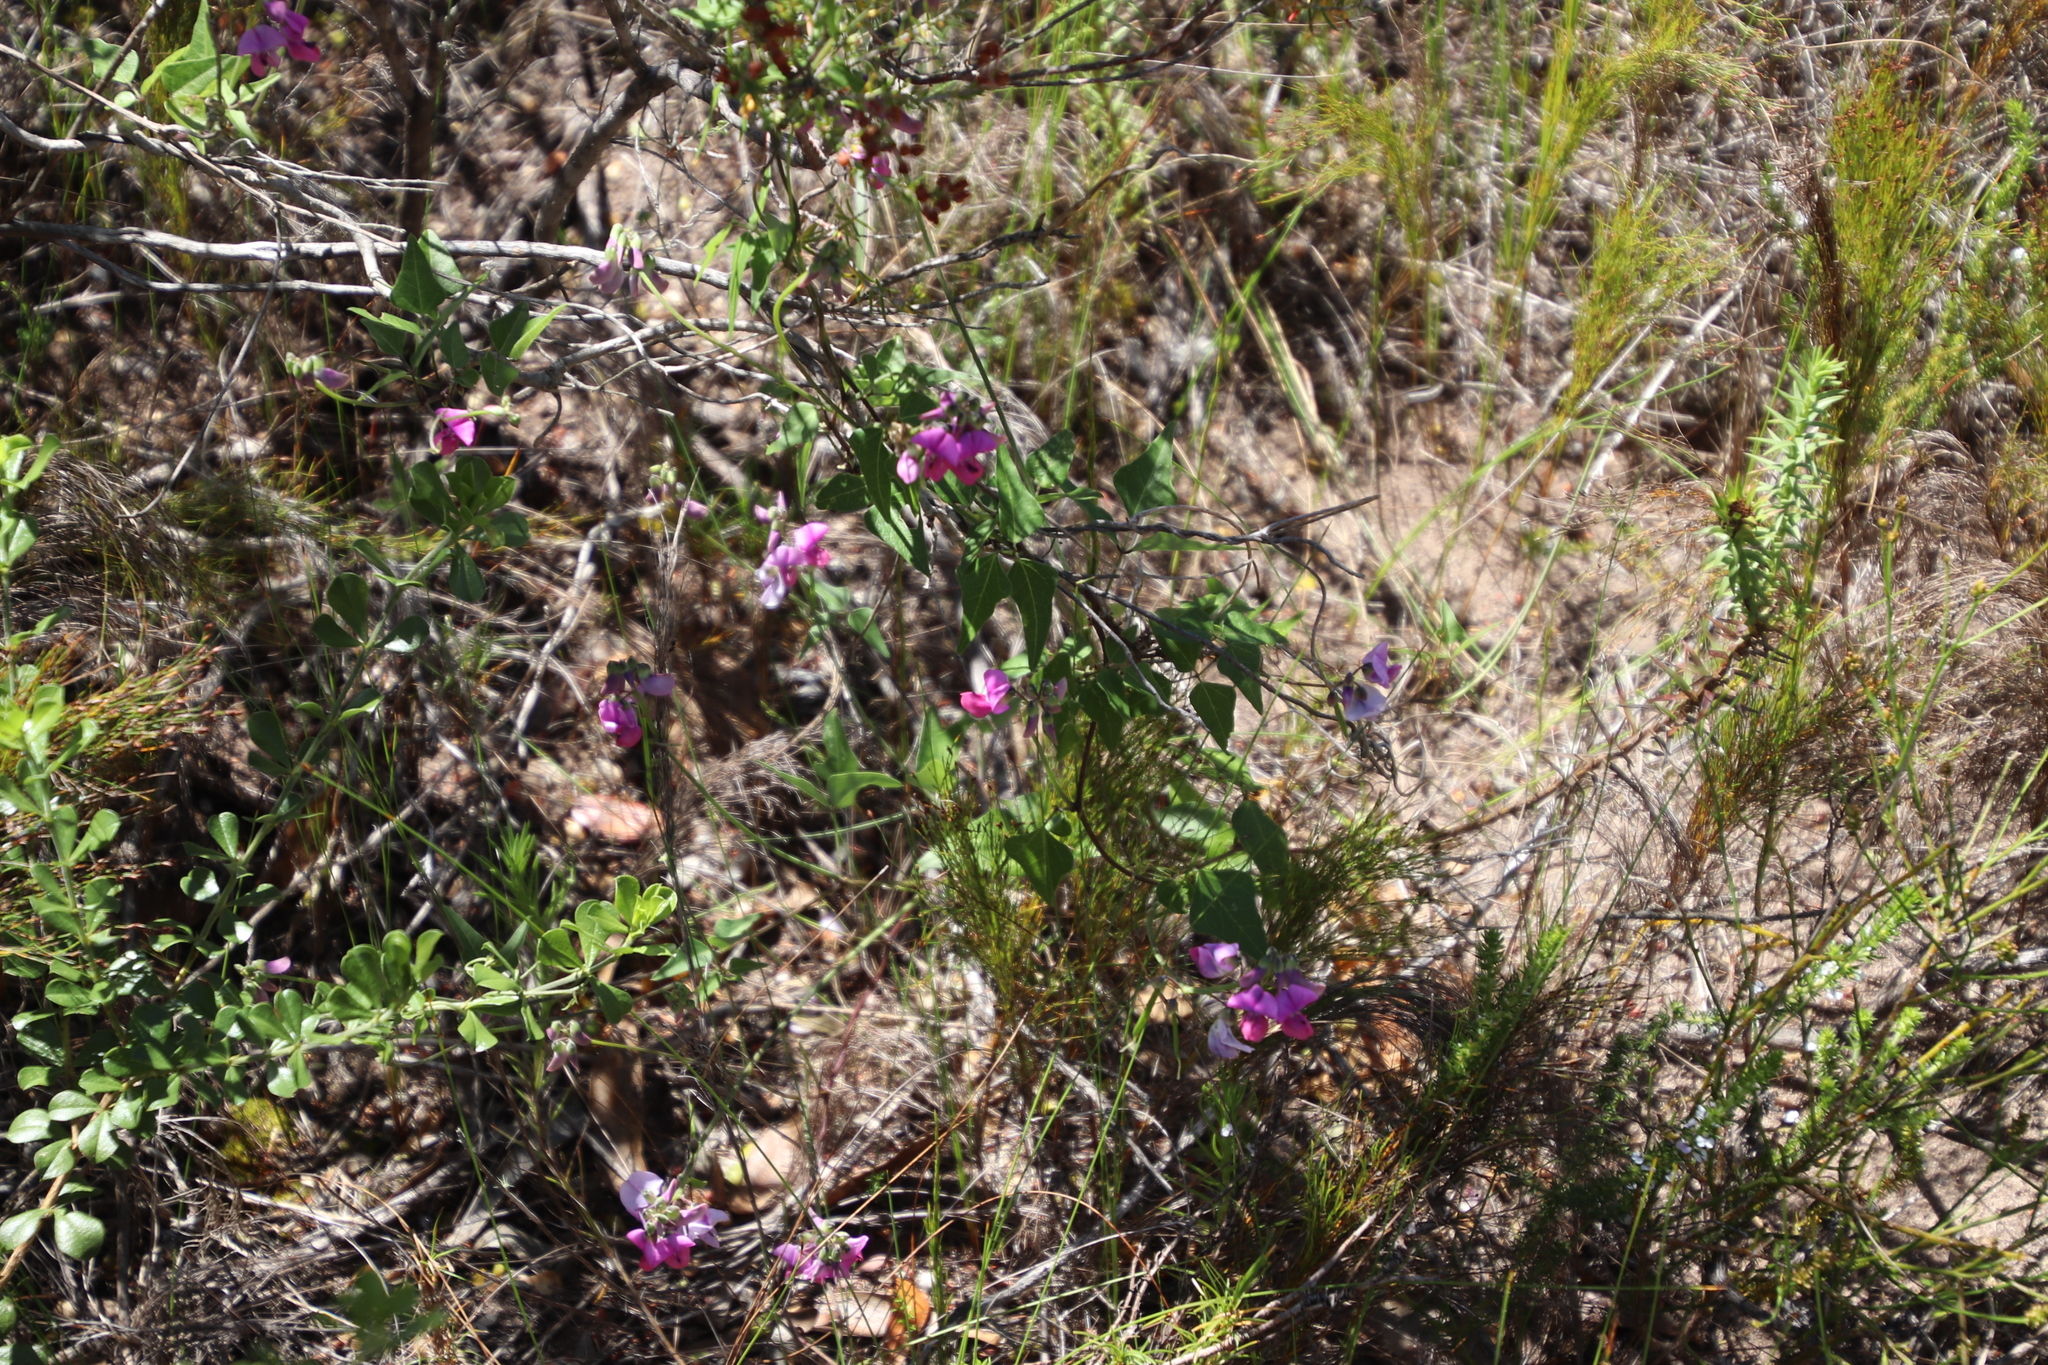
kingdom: Plantae
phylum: Tracheophyta
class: Magnoliopsida
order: Fabales
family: Fabaceae
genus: Dipogon
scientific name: Dipogon lignosus
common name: Okie bean
